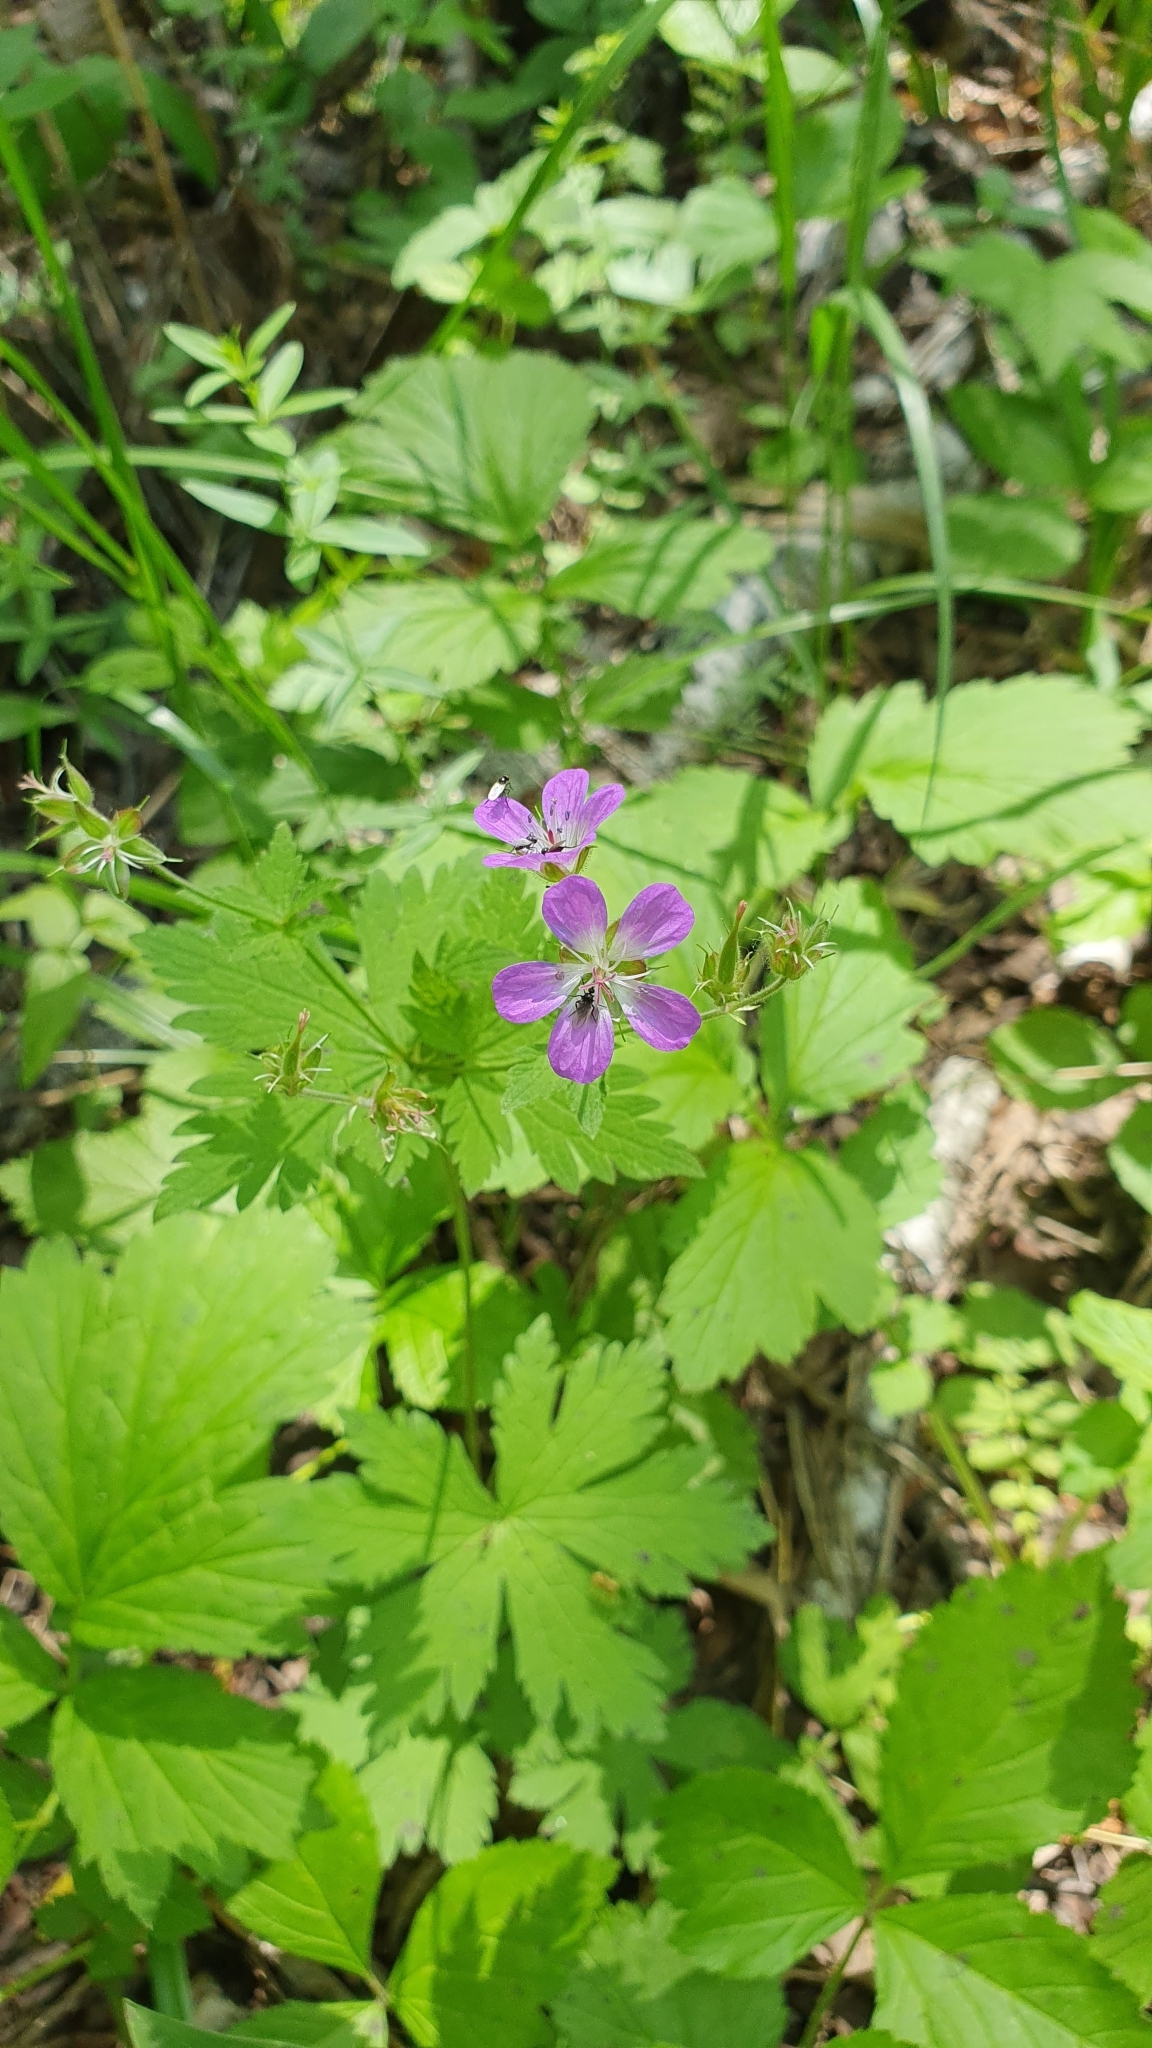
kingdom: Plantae
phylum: Tracheophyta
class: Magnoliopsida
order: Geraniales
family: Geraniaceae
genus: Geranium
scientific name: Geranium sylvaticum
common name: Wood crane's-bill
